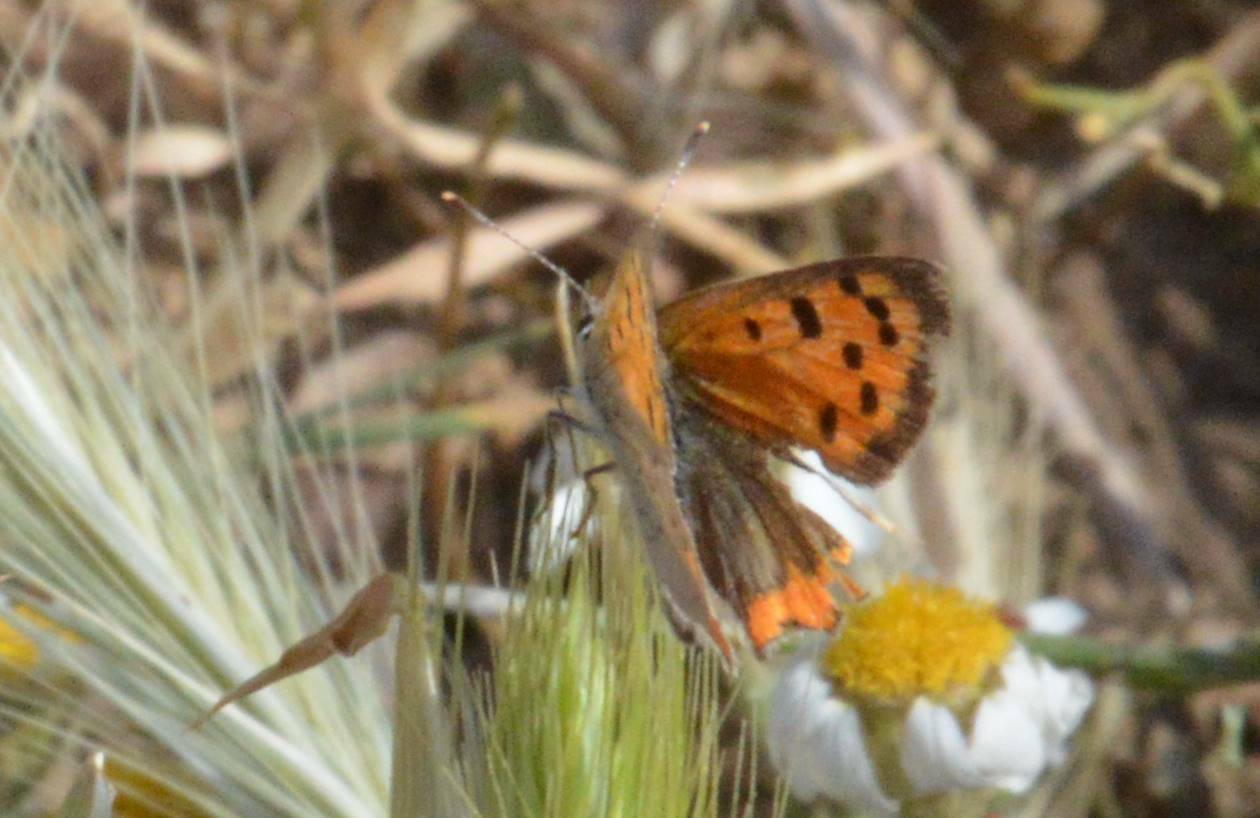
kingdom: Animalia
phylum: Arthropoda
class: Insecta
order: Lepidoptera
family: Lycaenidae
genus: Lycaena
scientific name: Lycaena phlaeas
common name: Small copper
